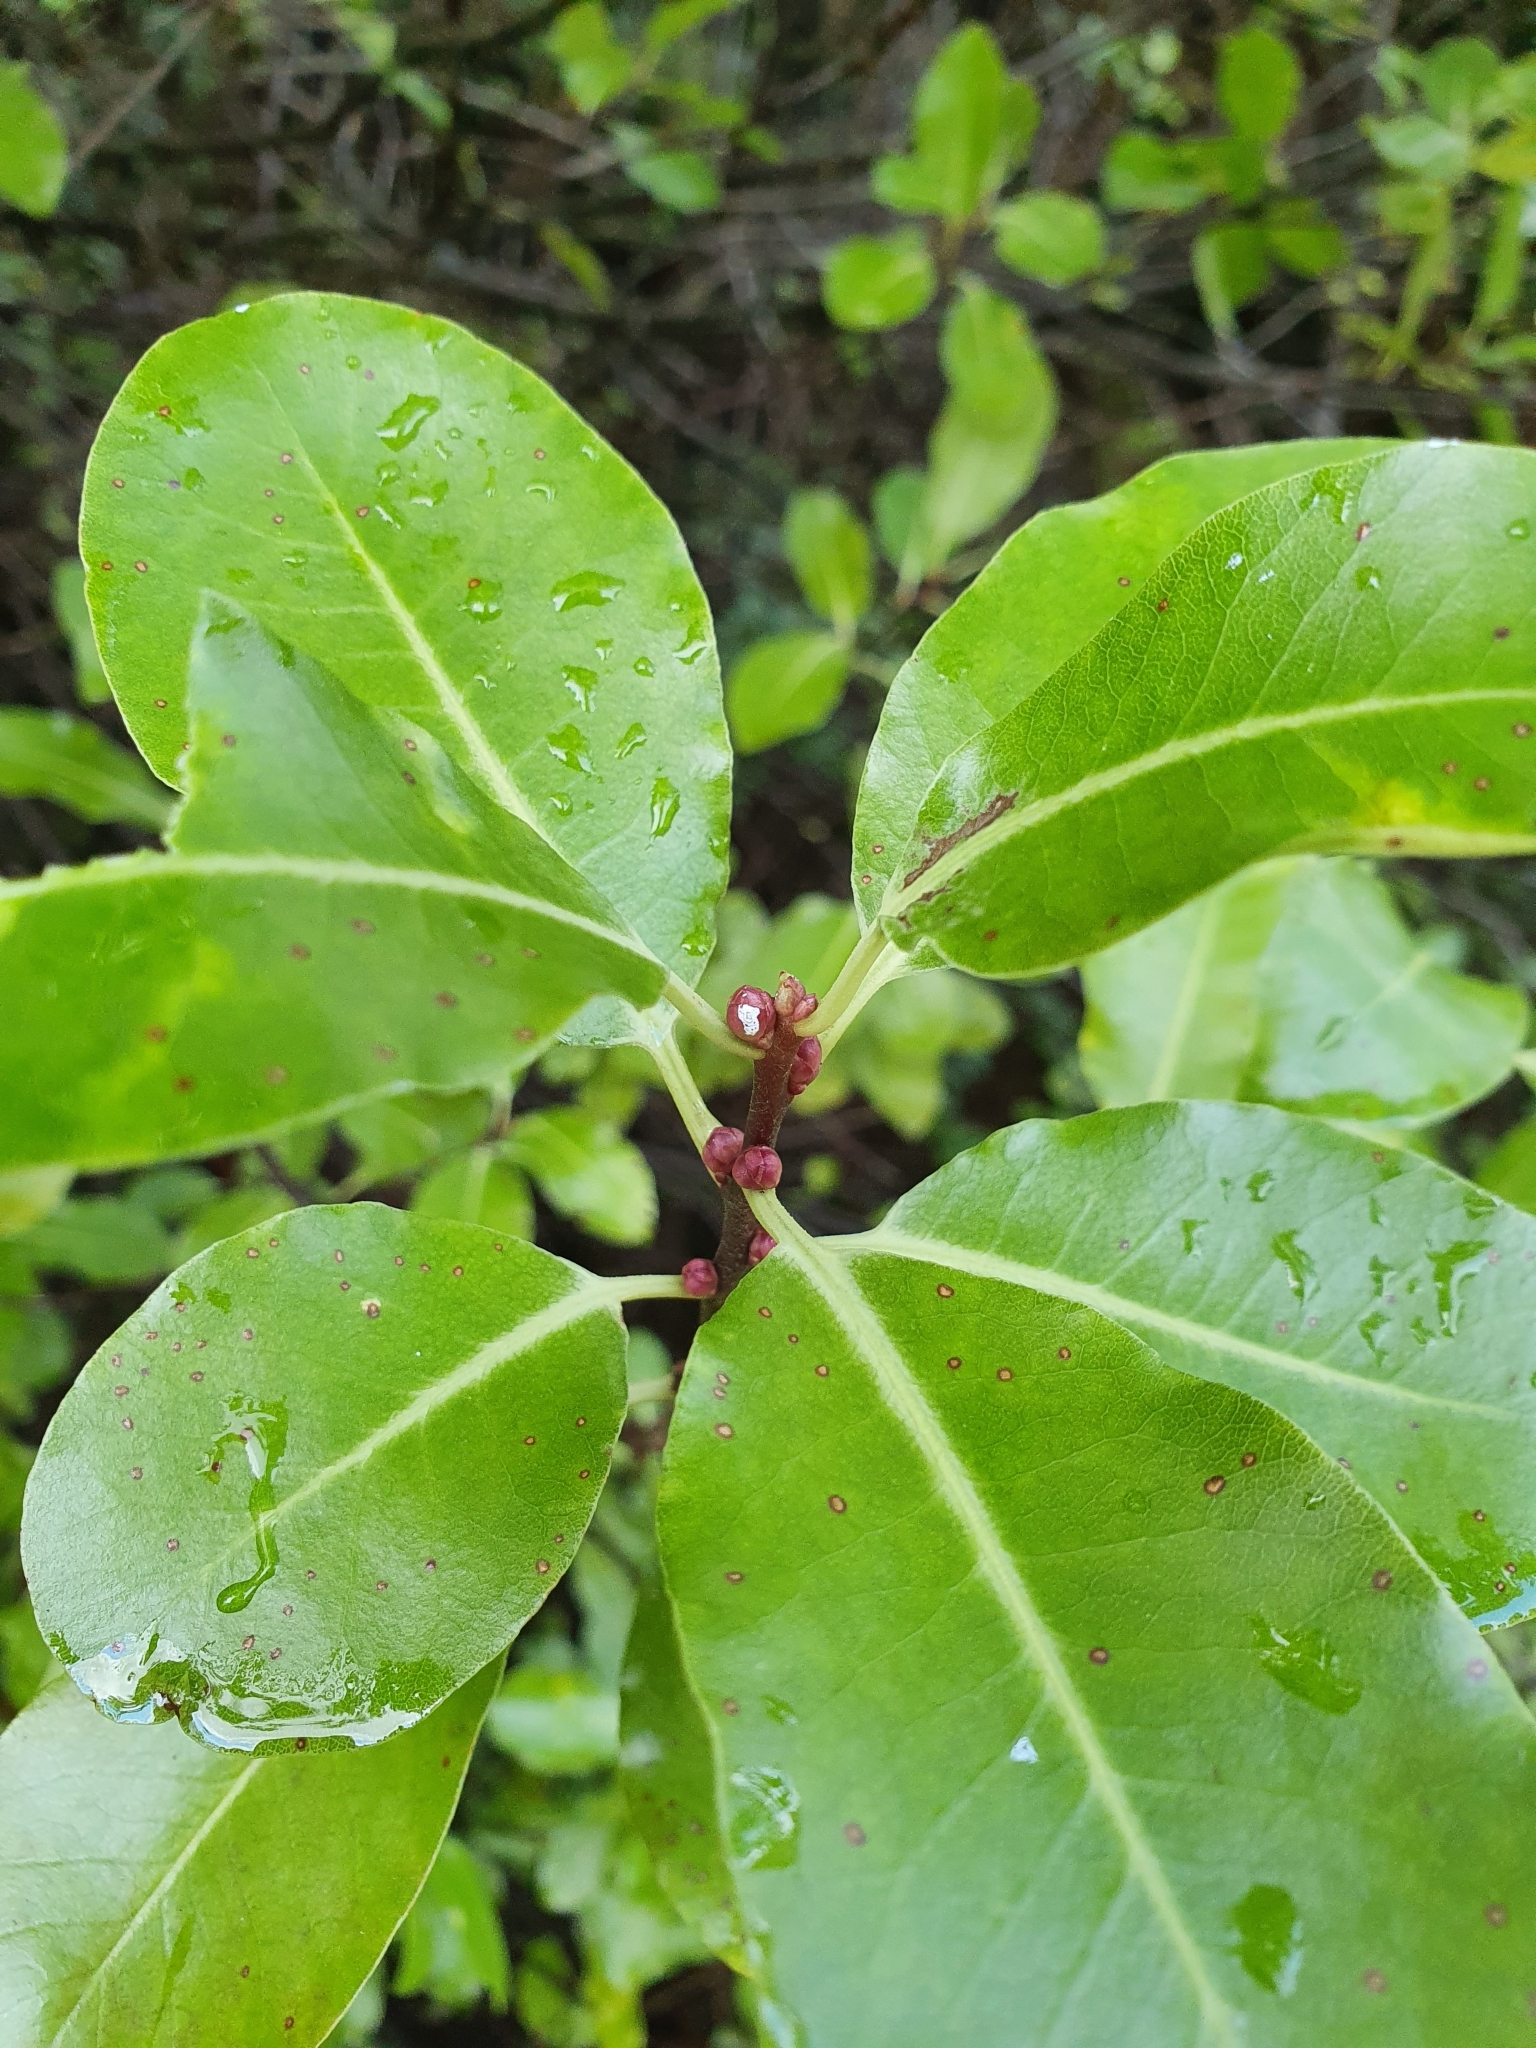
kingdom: Plantae
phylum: Tracheophyta
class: Magnoliopsida
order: Apiales
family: Pittosporaceae
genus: Pittosporum
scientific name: Pittosporum tenuifolium
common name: Kohuhu
